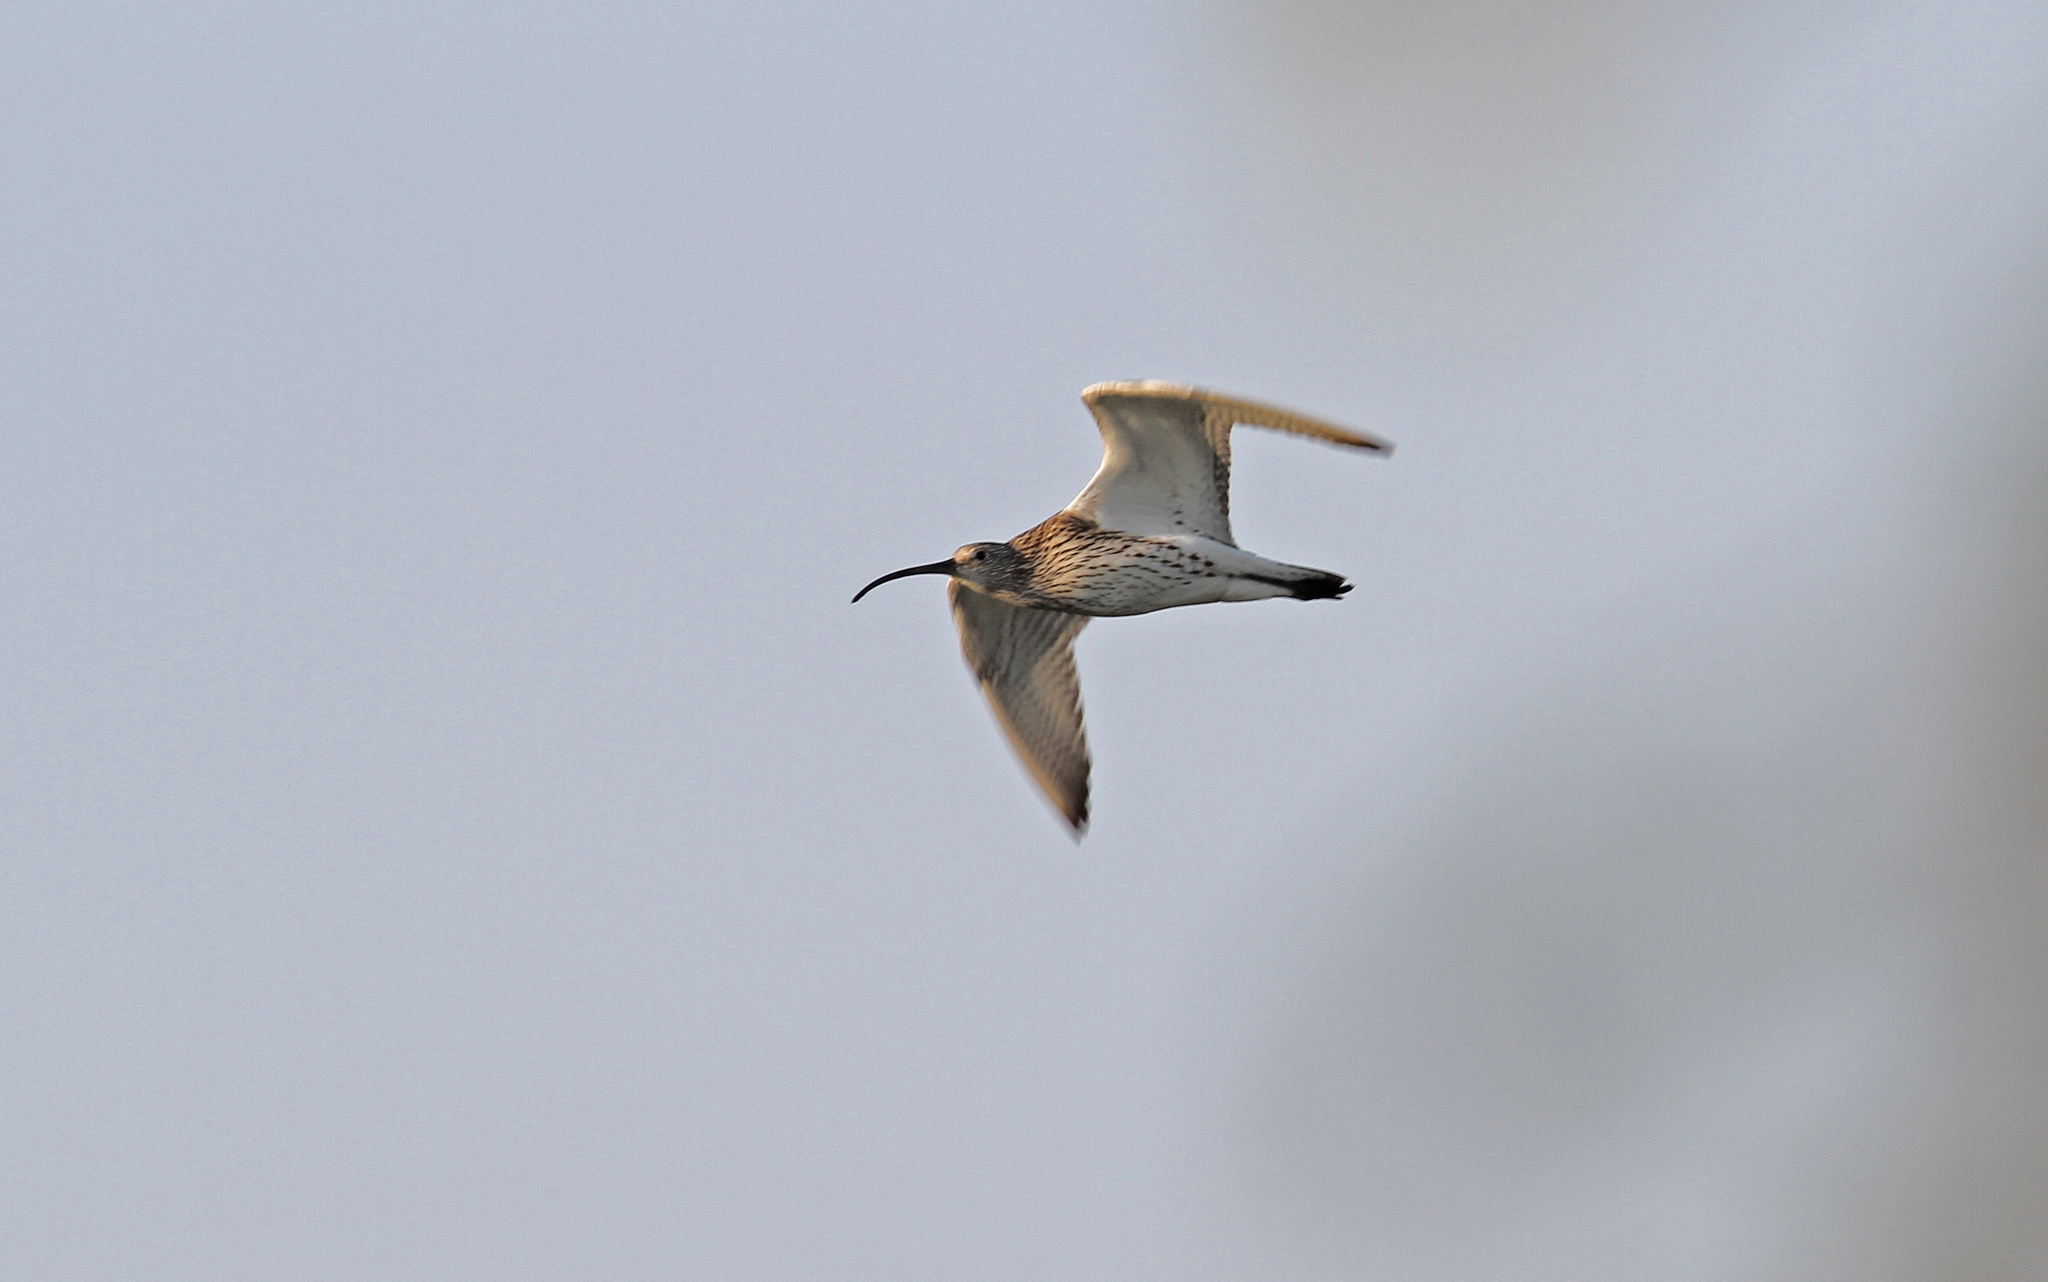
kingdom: Animalia
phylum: Chordata
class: Aves
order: Charadriiformes
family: Scolopacidae
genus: Numenius
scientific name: Numenius arquata
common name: Eurasian curlew
